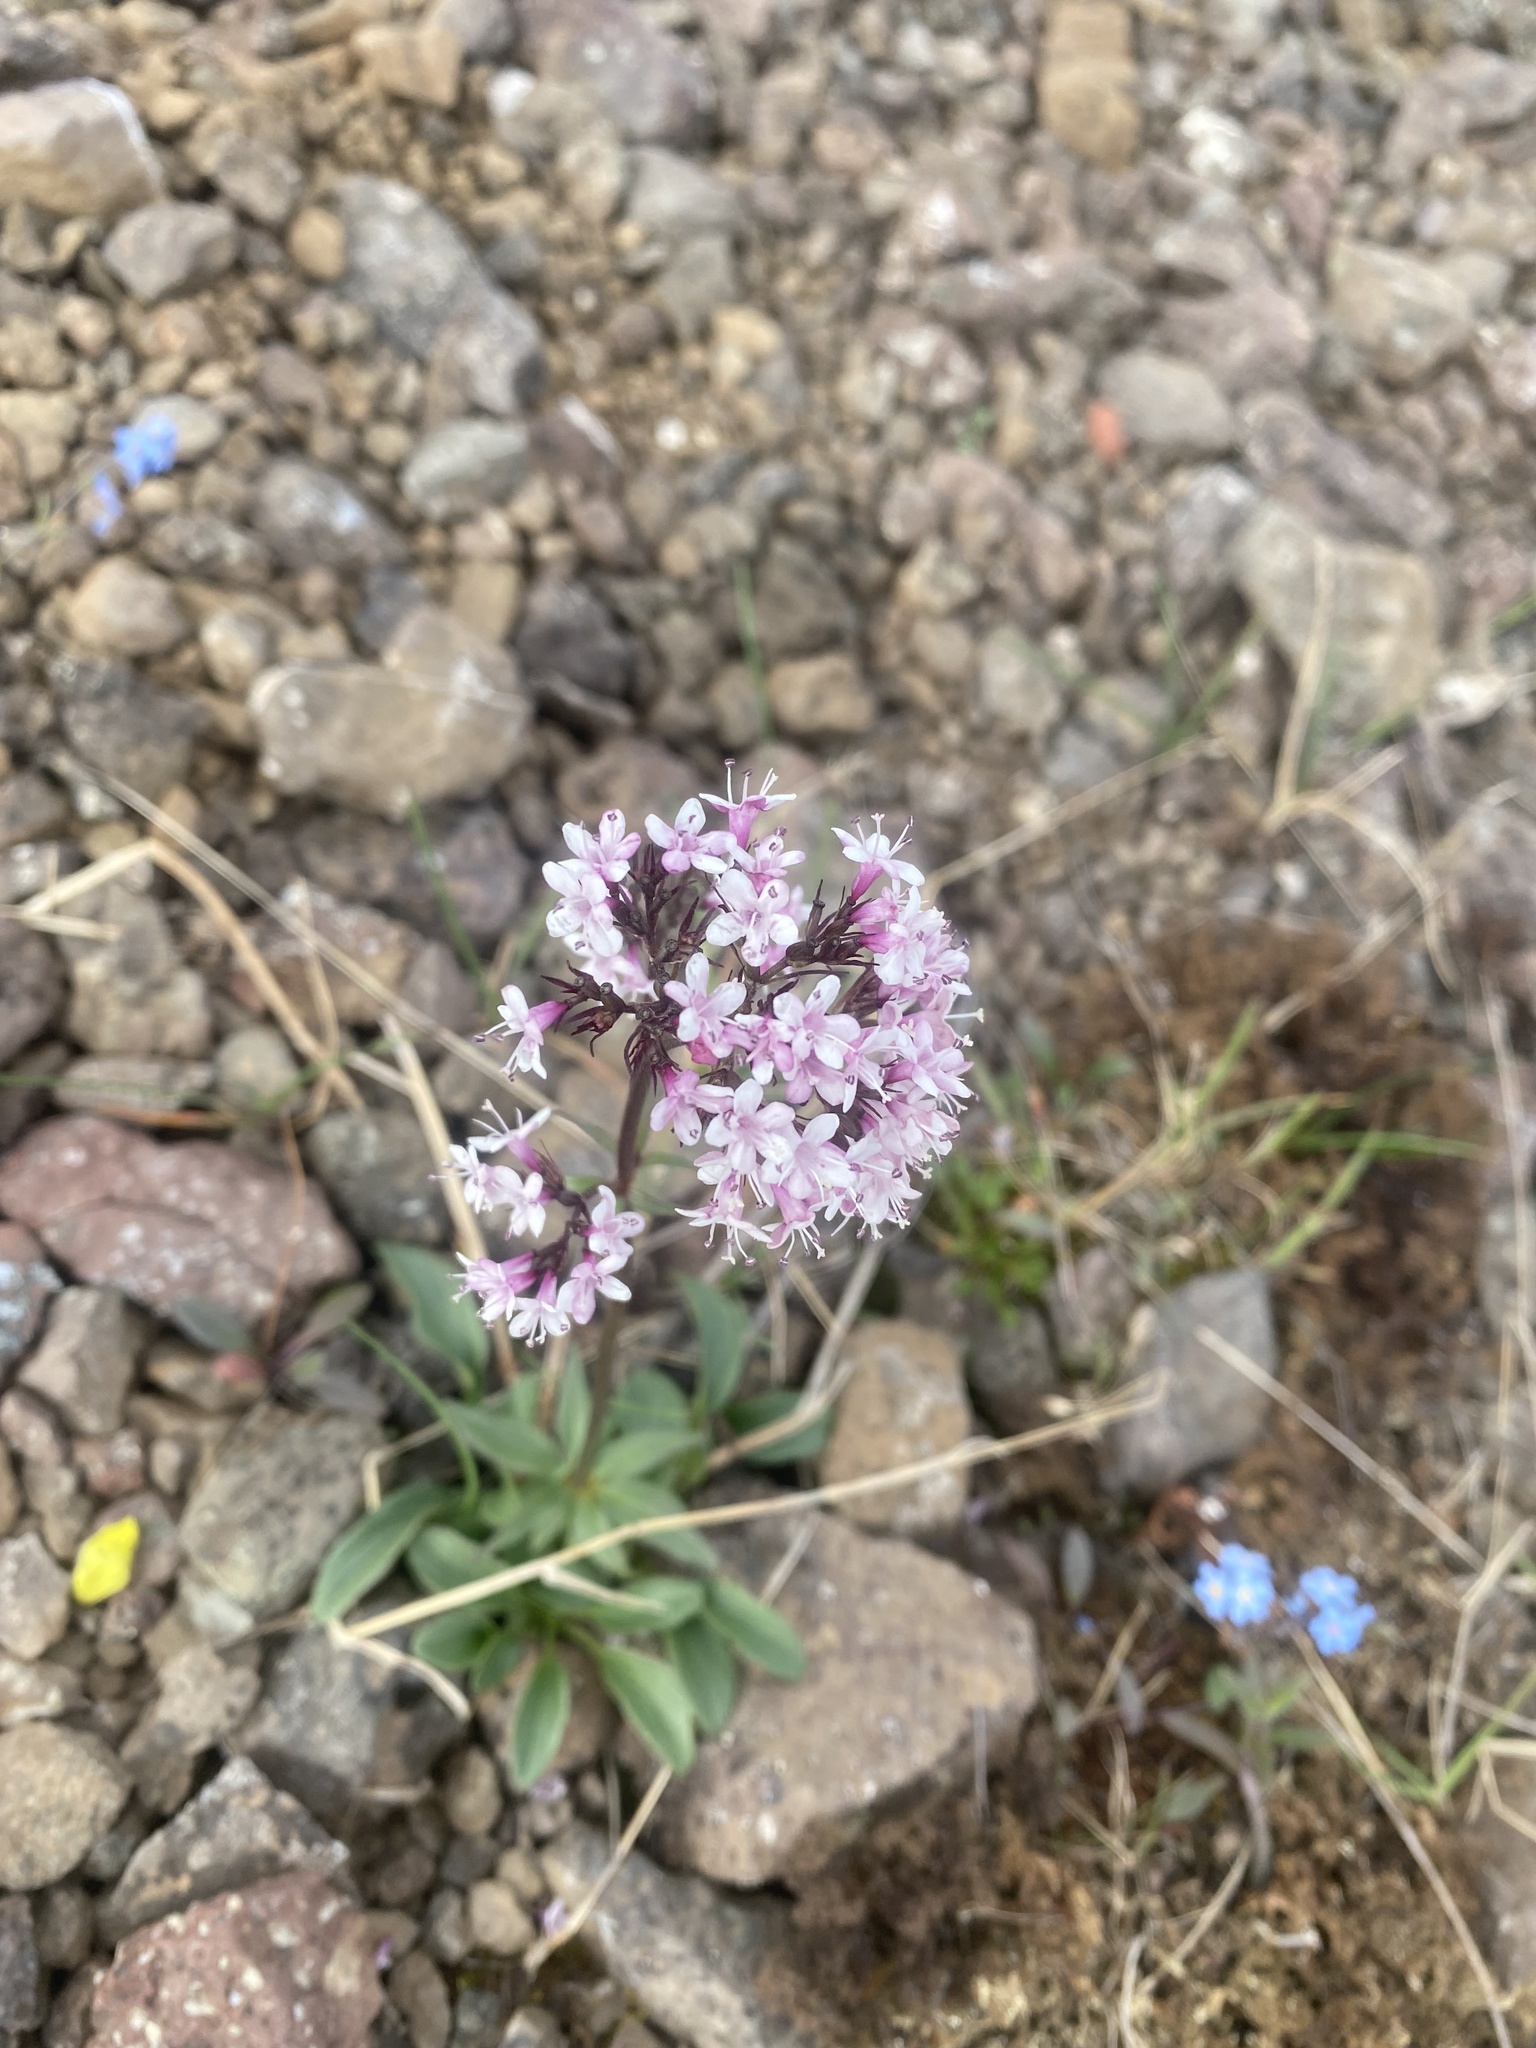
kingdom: Plantae
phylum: Tracheophyta
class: Magnoliopsida
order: Dipsacales
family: Caprifoliaceae
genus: Valeriana
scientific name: Valeriana capitata
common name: Capitate valerian
